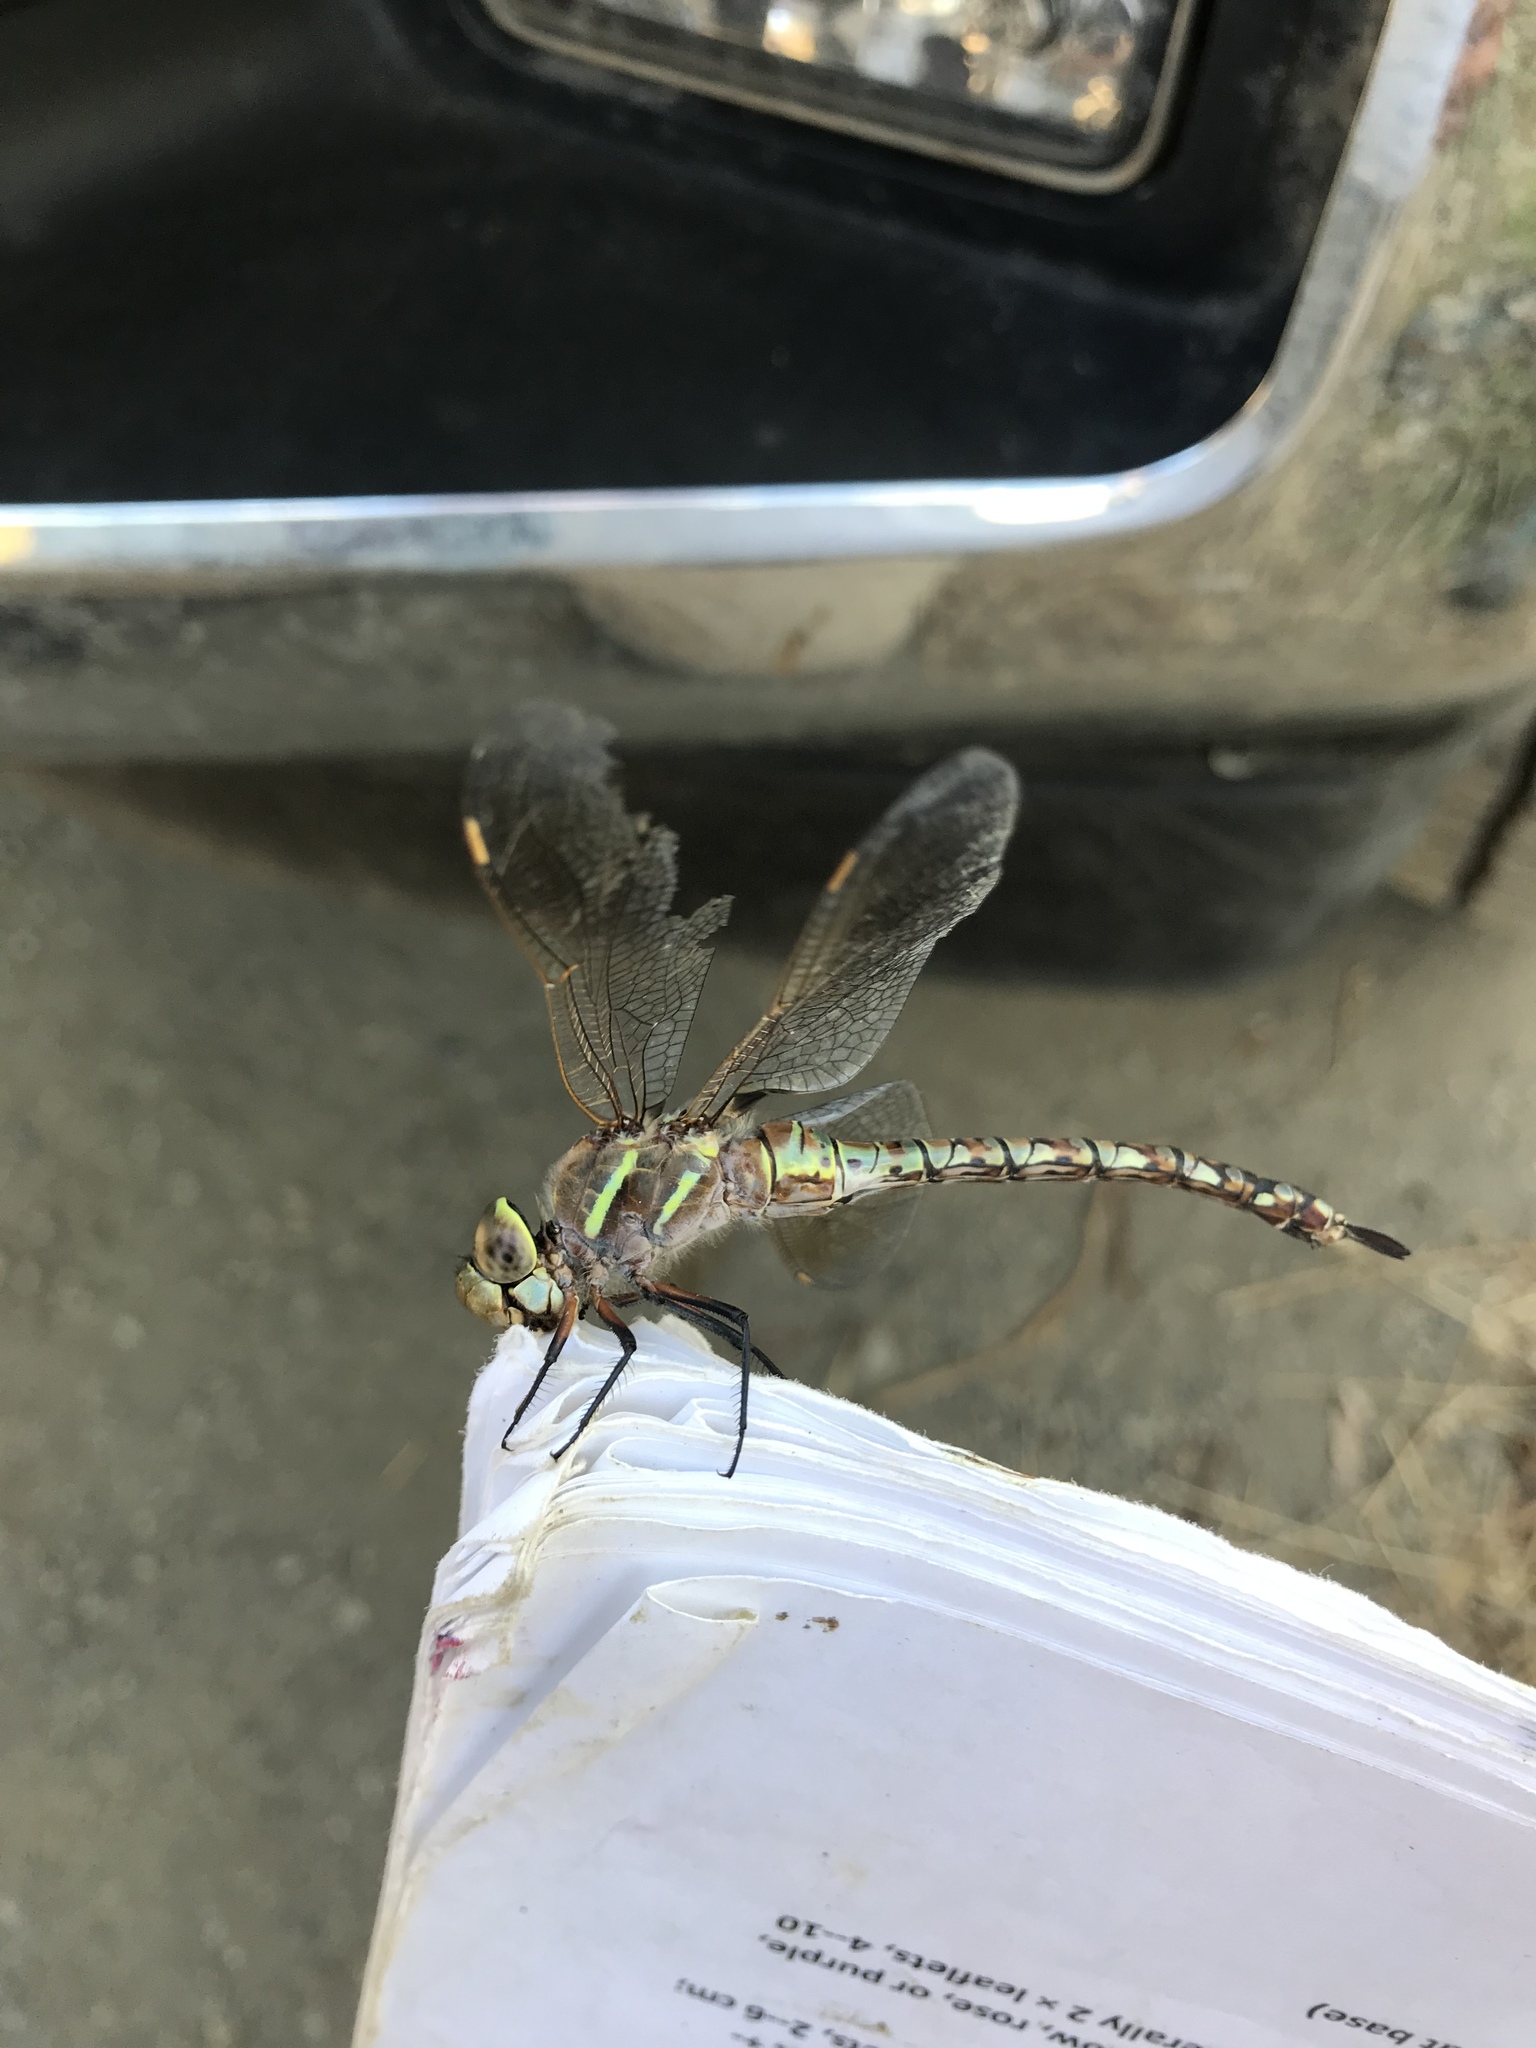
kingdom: Animalia
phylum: Arthropoda
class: Insecta
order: Odonata
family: Aeshnidae
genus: Rhionaeschna
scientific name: Rhionaeschna multicolor
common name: Blue-eyed darner
